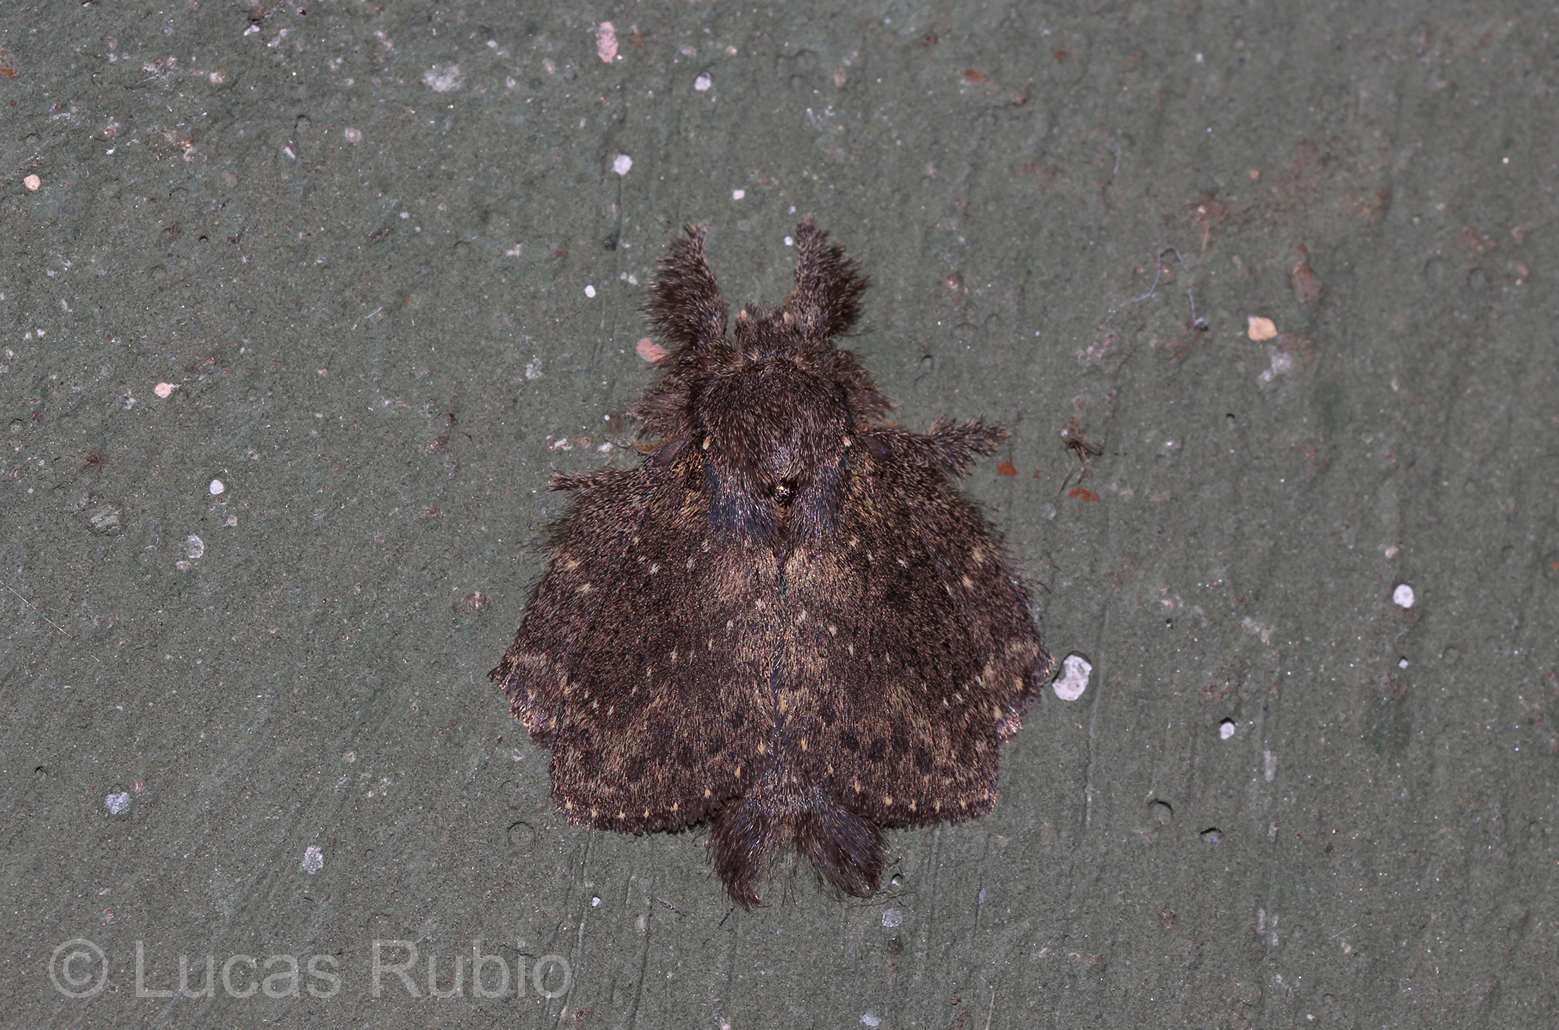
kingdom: Animalia
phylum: Arthropoda
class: Insecta
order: Lepidoptera
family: Lasiocampidae
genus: Euglyphis
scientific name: Euglyphis melancholica
